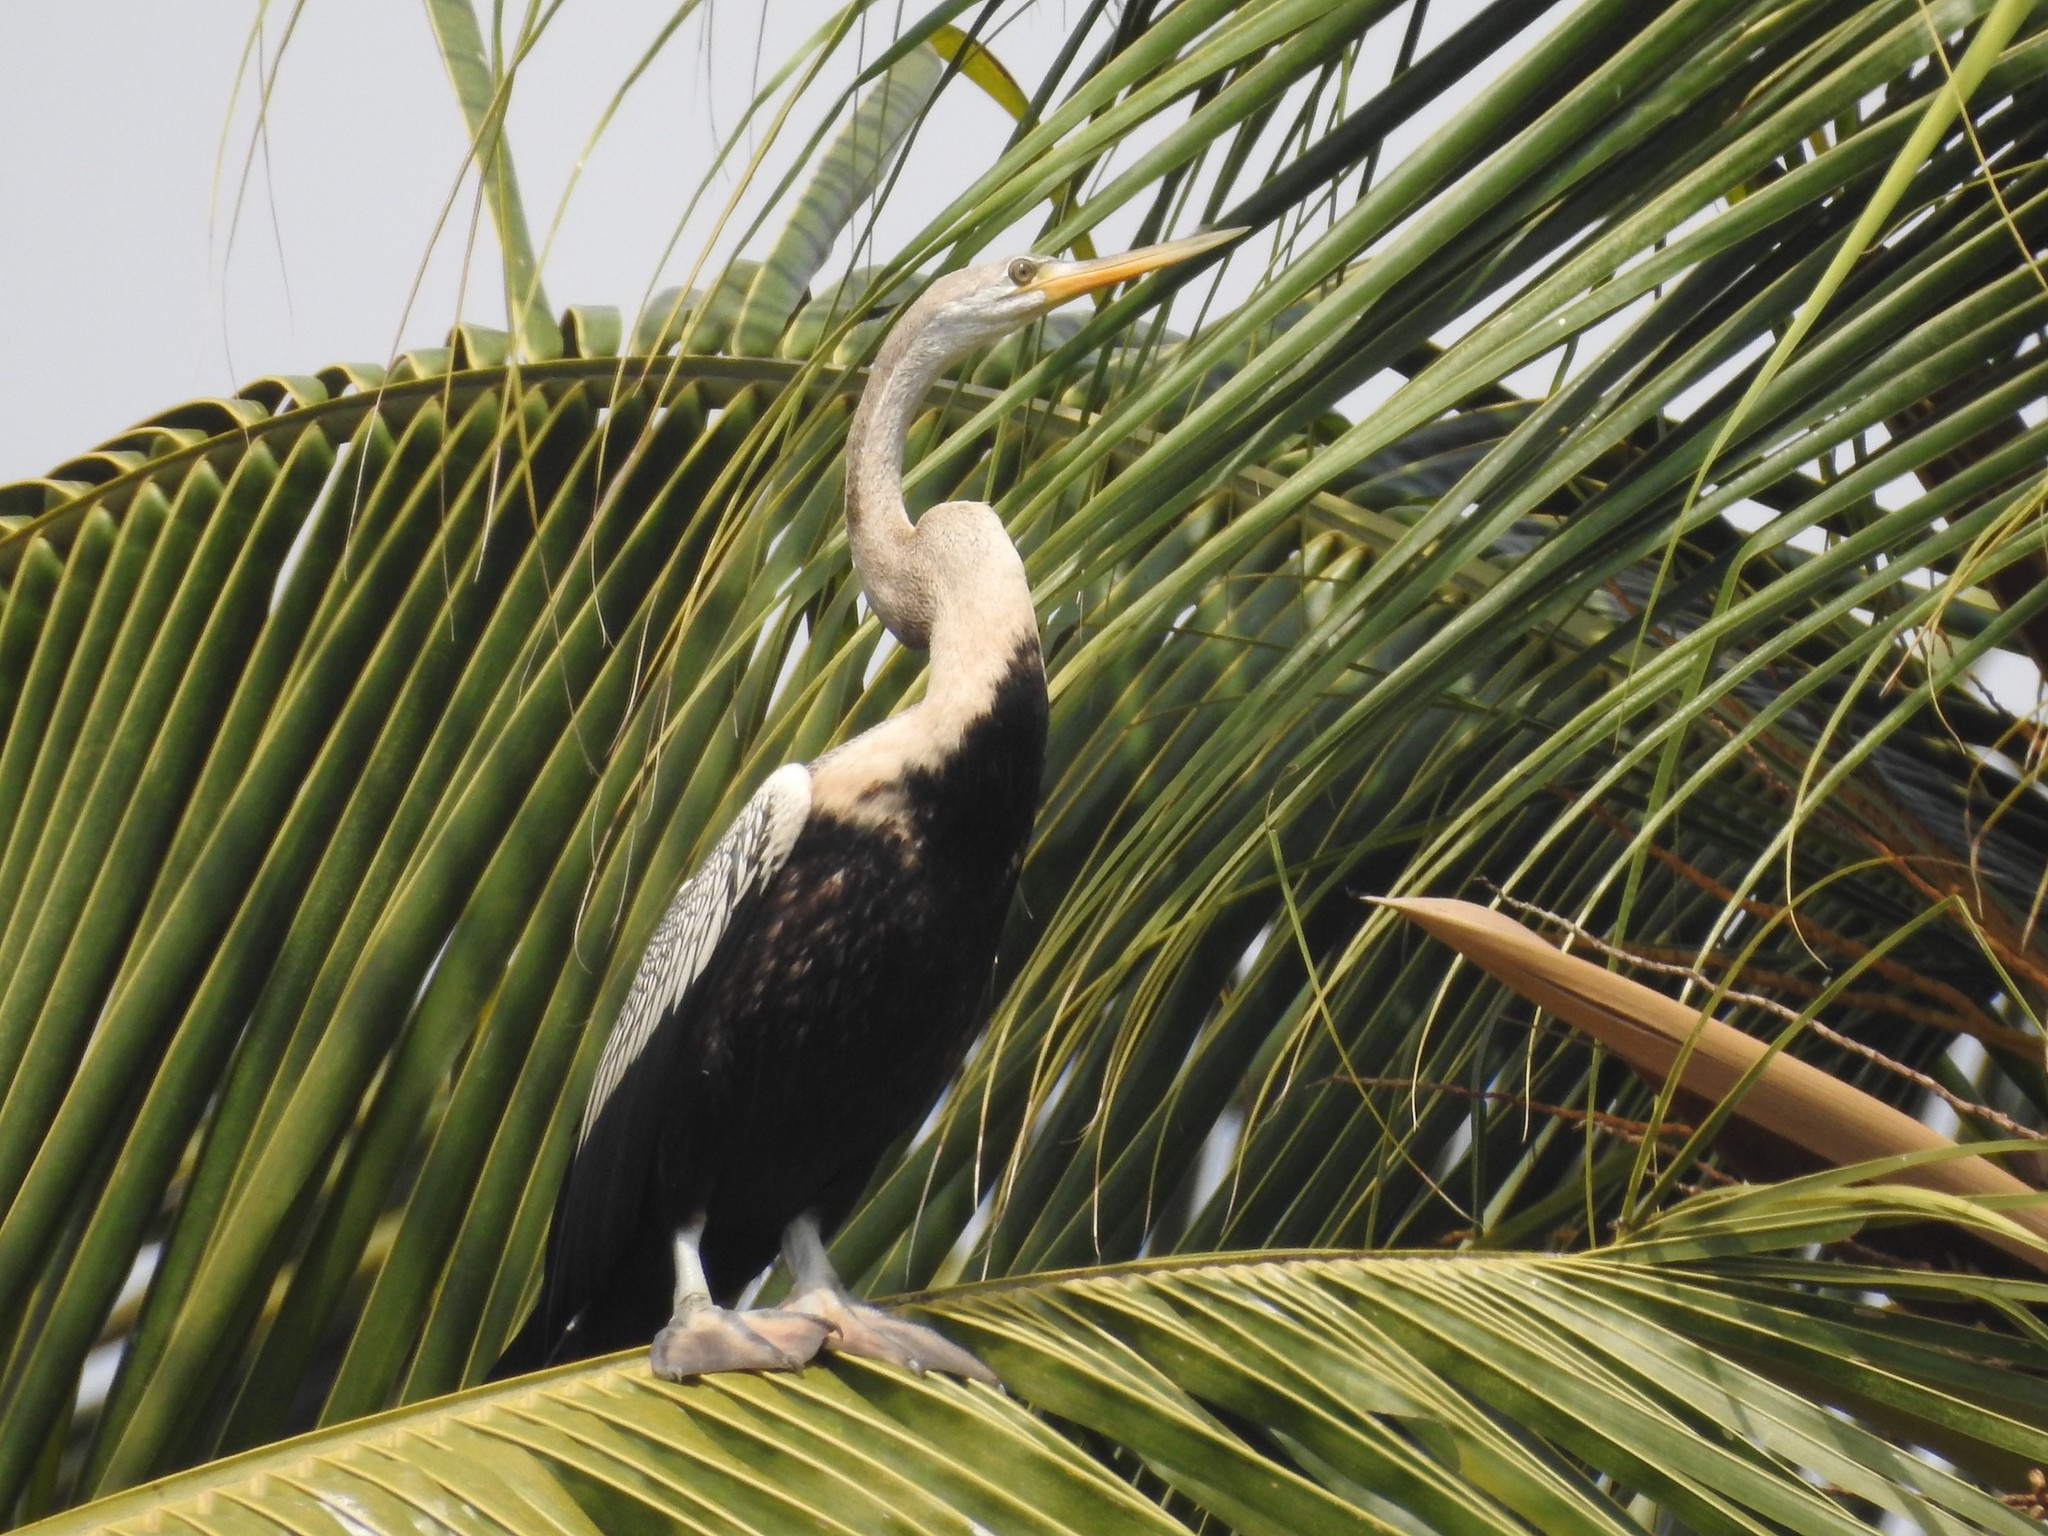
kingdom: Animalia
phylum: Chordata
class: Aves
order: Suliformes
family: Anhingidae
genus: Anhinga
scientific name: Anhinga melanogaster
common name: Oriental darter
